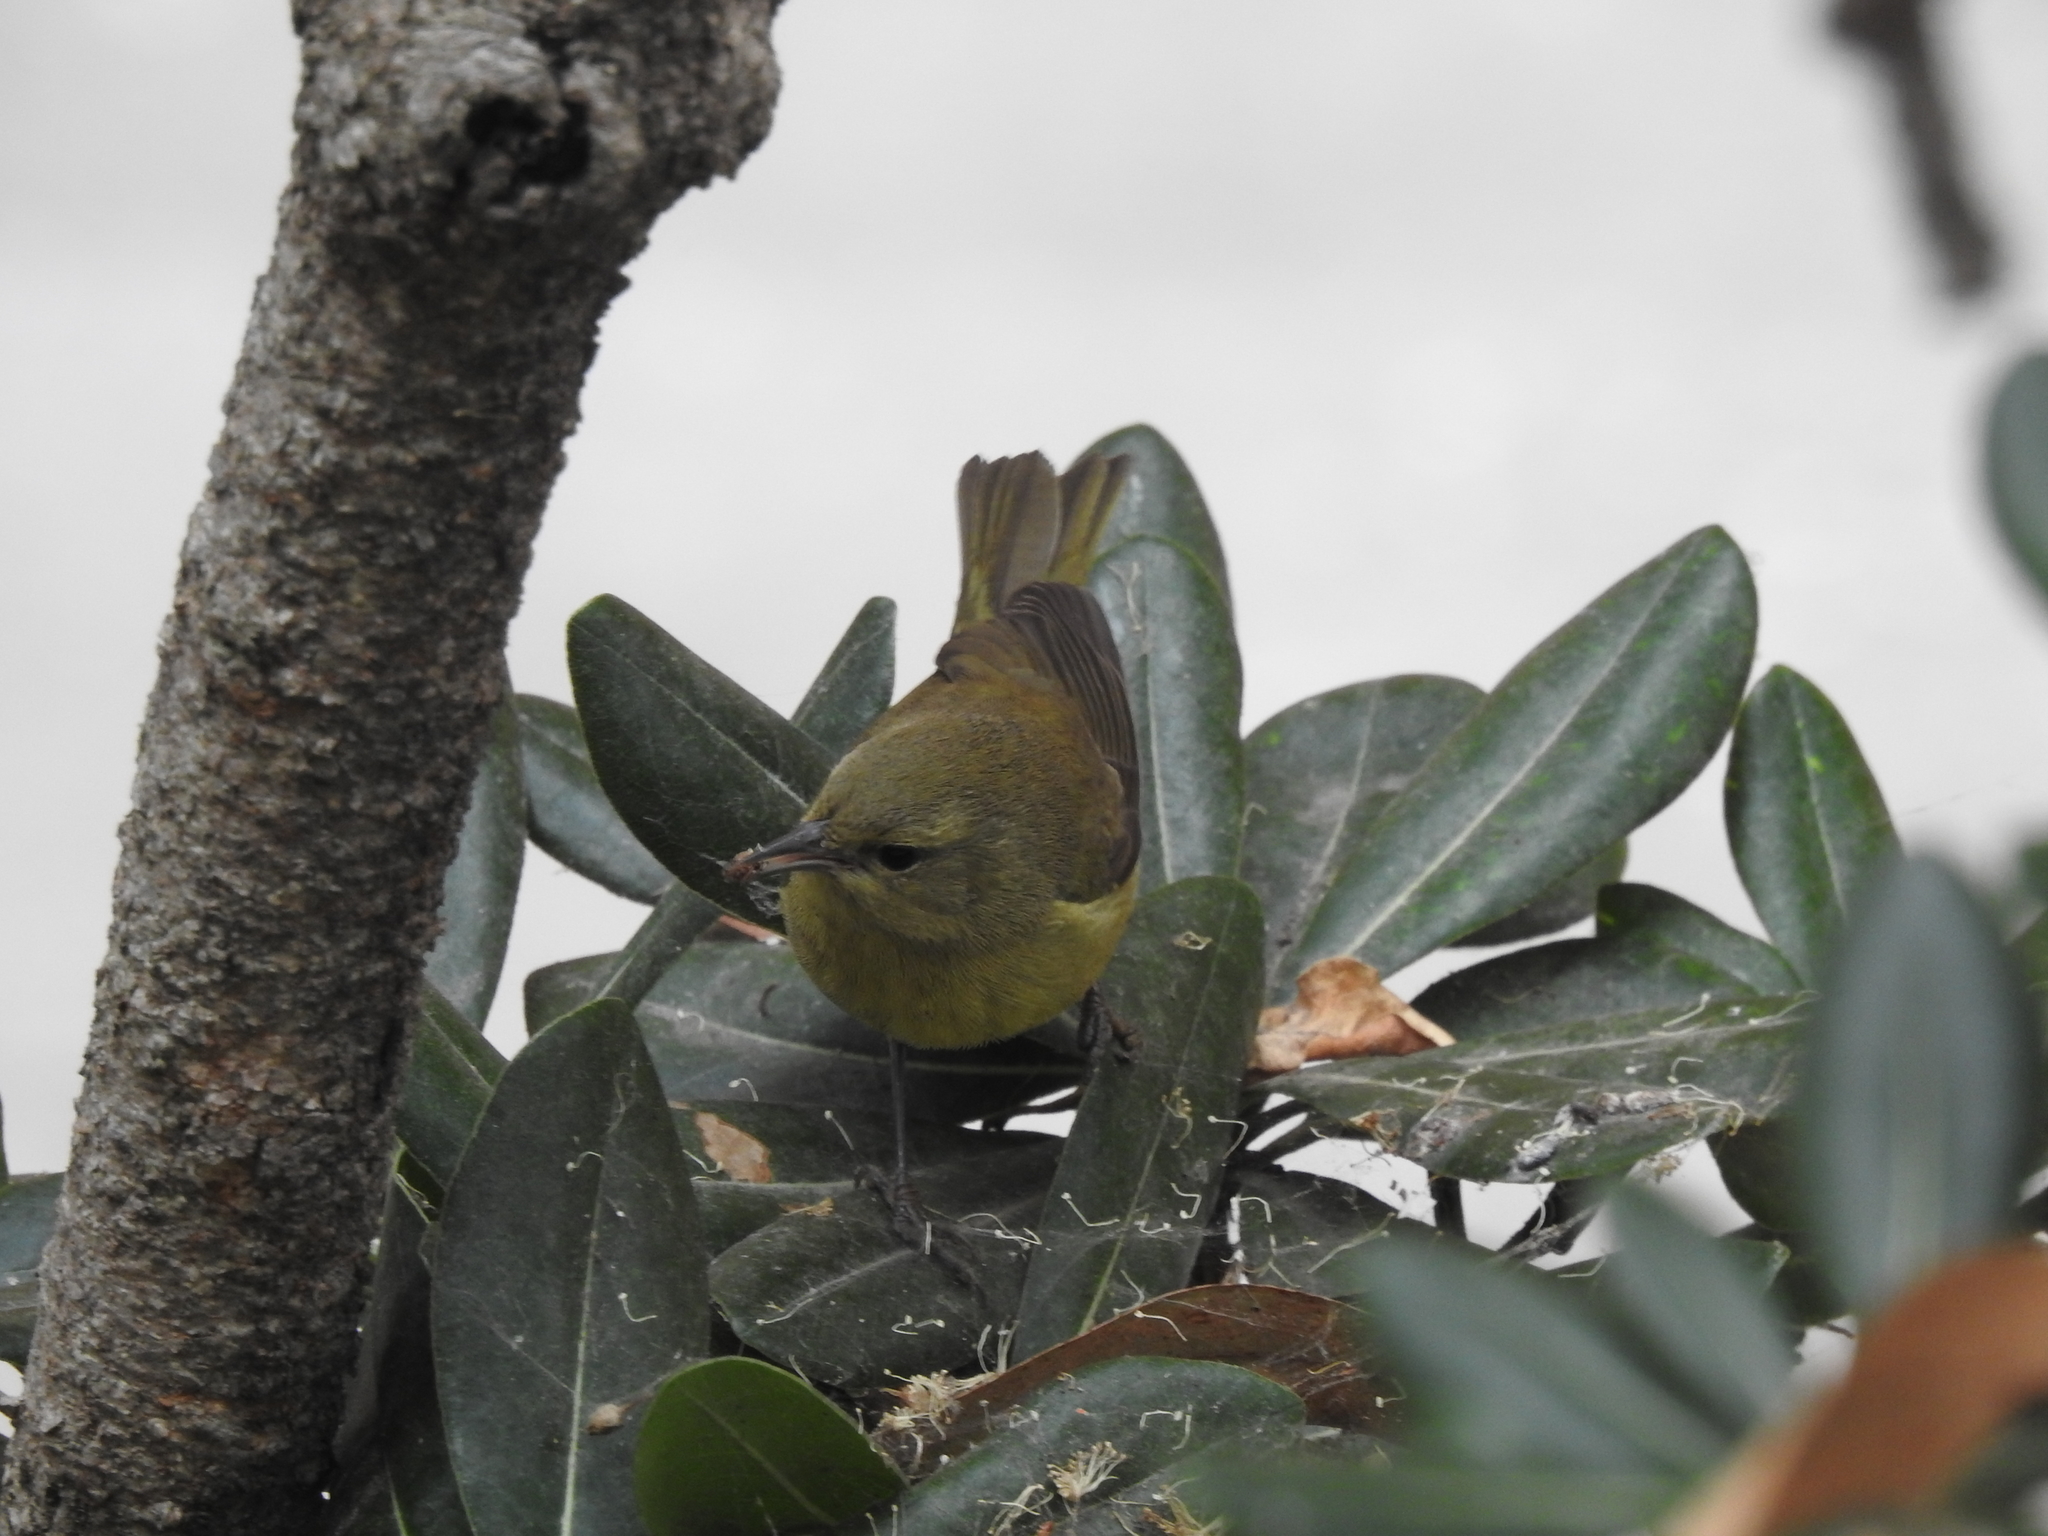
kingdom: Animalia
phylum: Chordata
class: Aves
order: Passeriformes
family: Parulidae
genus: Leiothlypis
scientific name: Leiothlypis celata
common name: Orange-crowned warbler
